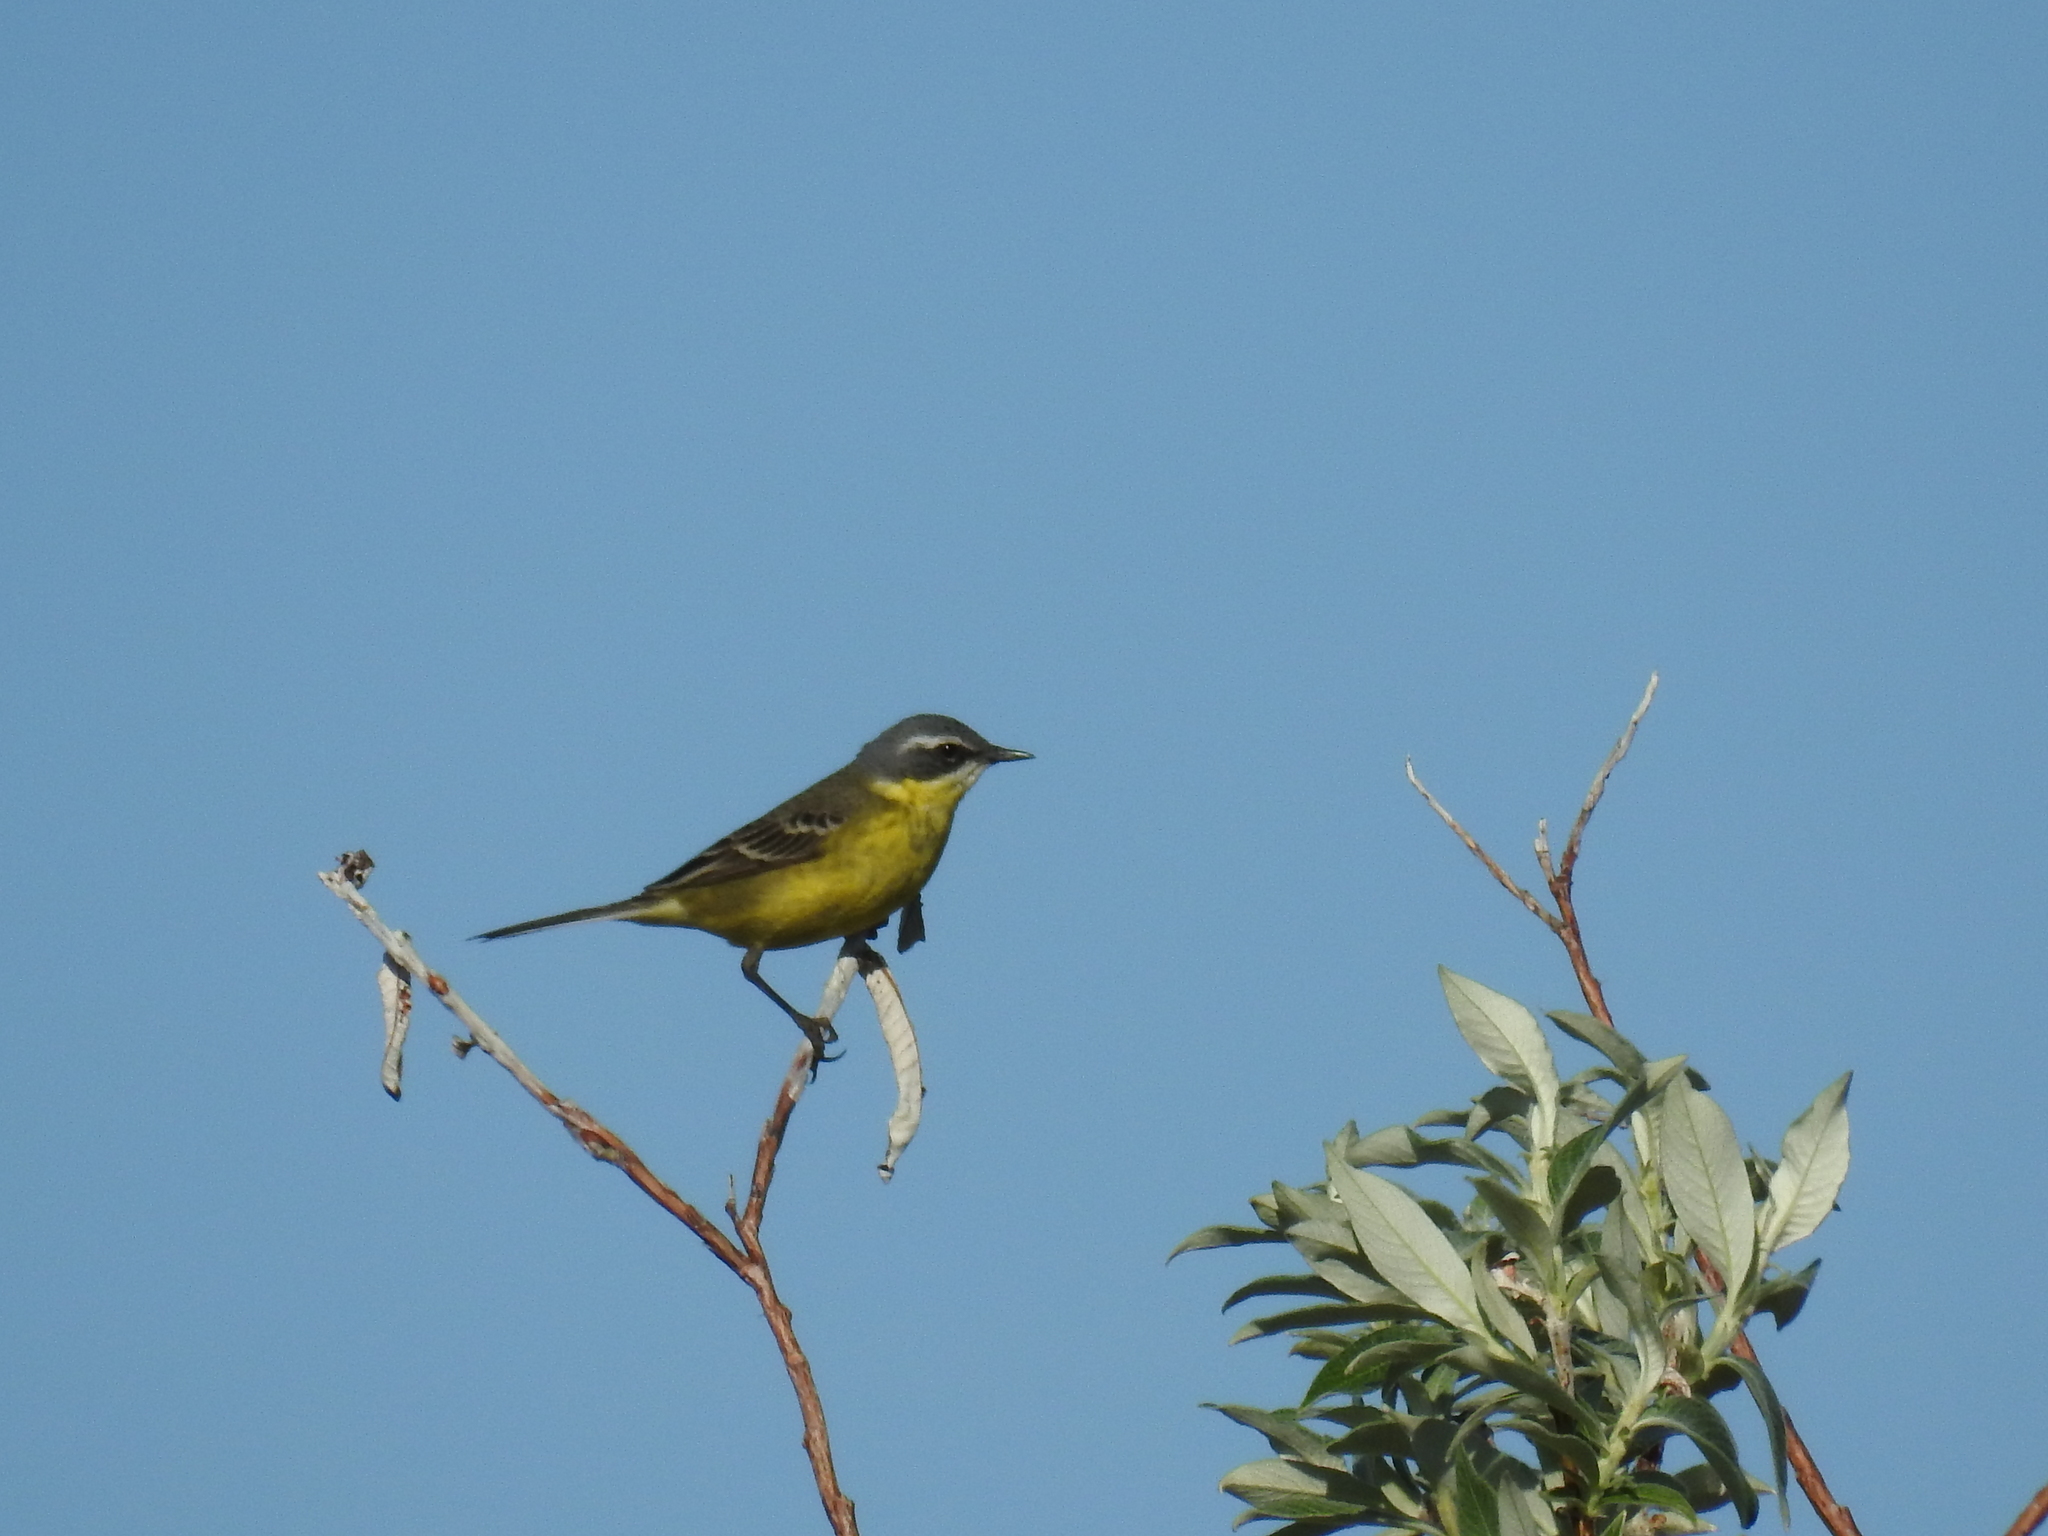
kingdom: Animalia
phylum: Chordata
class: Aves
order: Passeriformes
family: Motacillidae
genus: Motacilla
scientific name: Motacilla tschutschensis
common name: Eastern yellow wagtail
